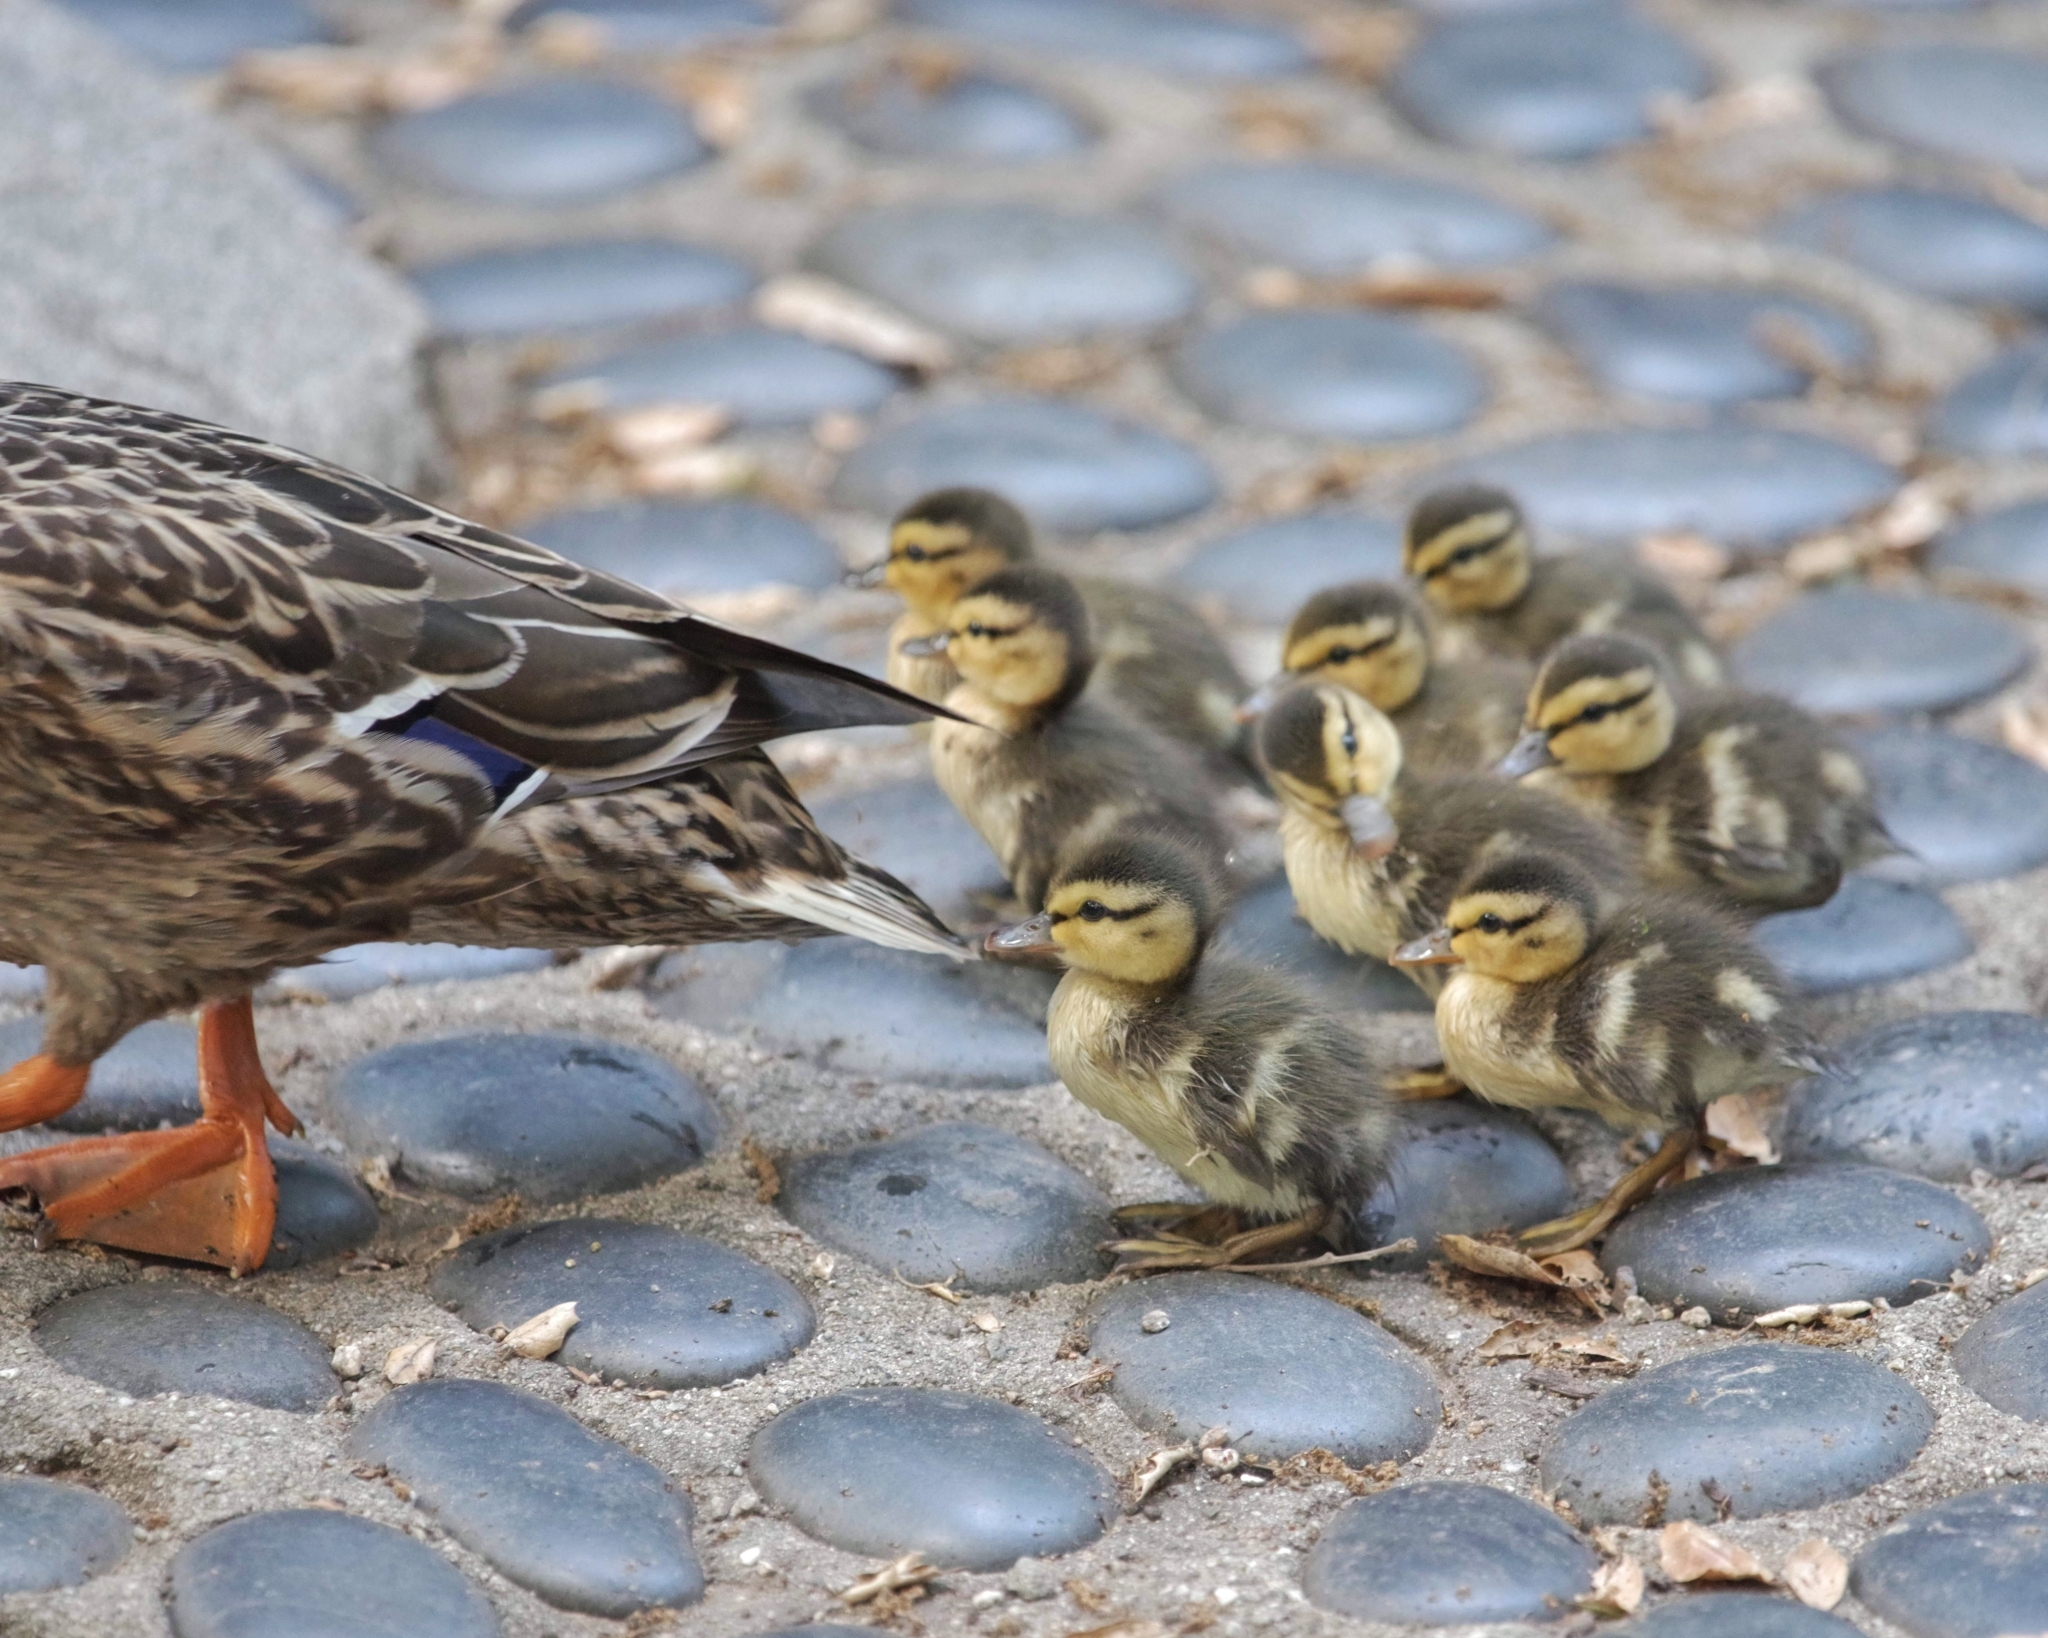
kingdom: Animalia
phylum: Chordata
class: Aves
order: Anseriformes
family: Anatidae
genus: Anas
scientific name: Anas platyrhynchos
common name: Mallard
